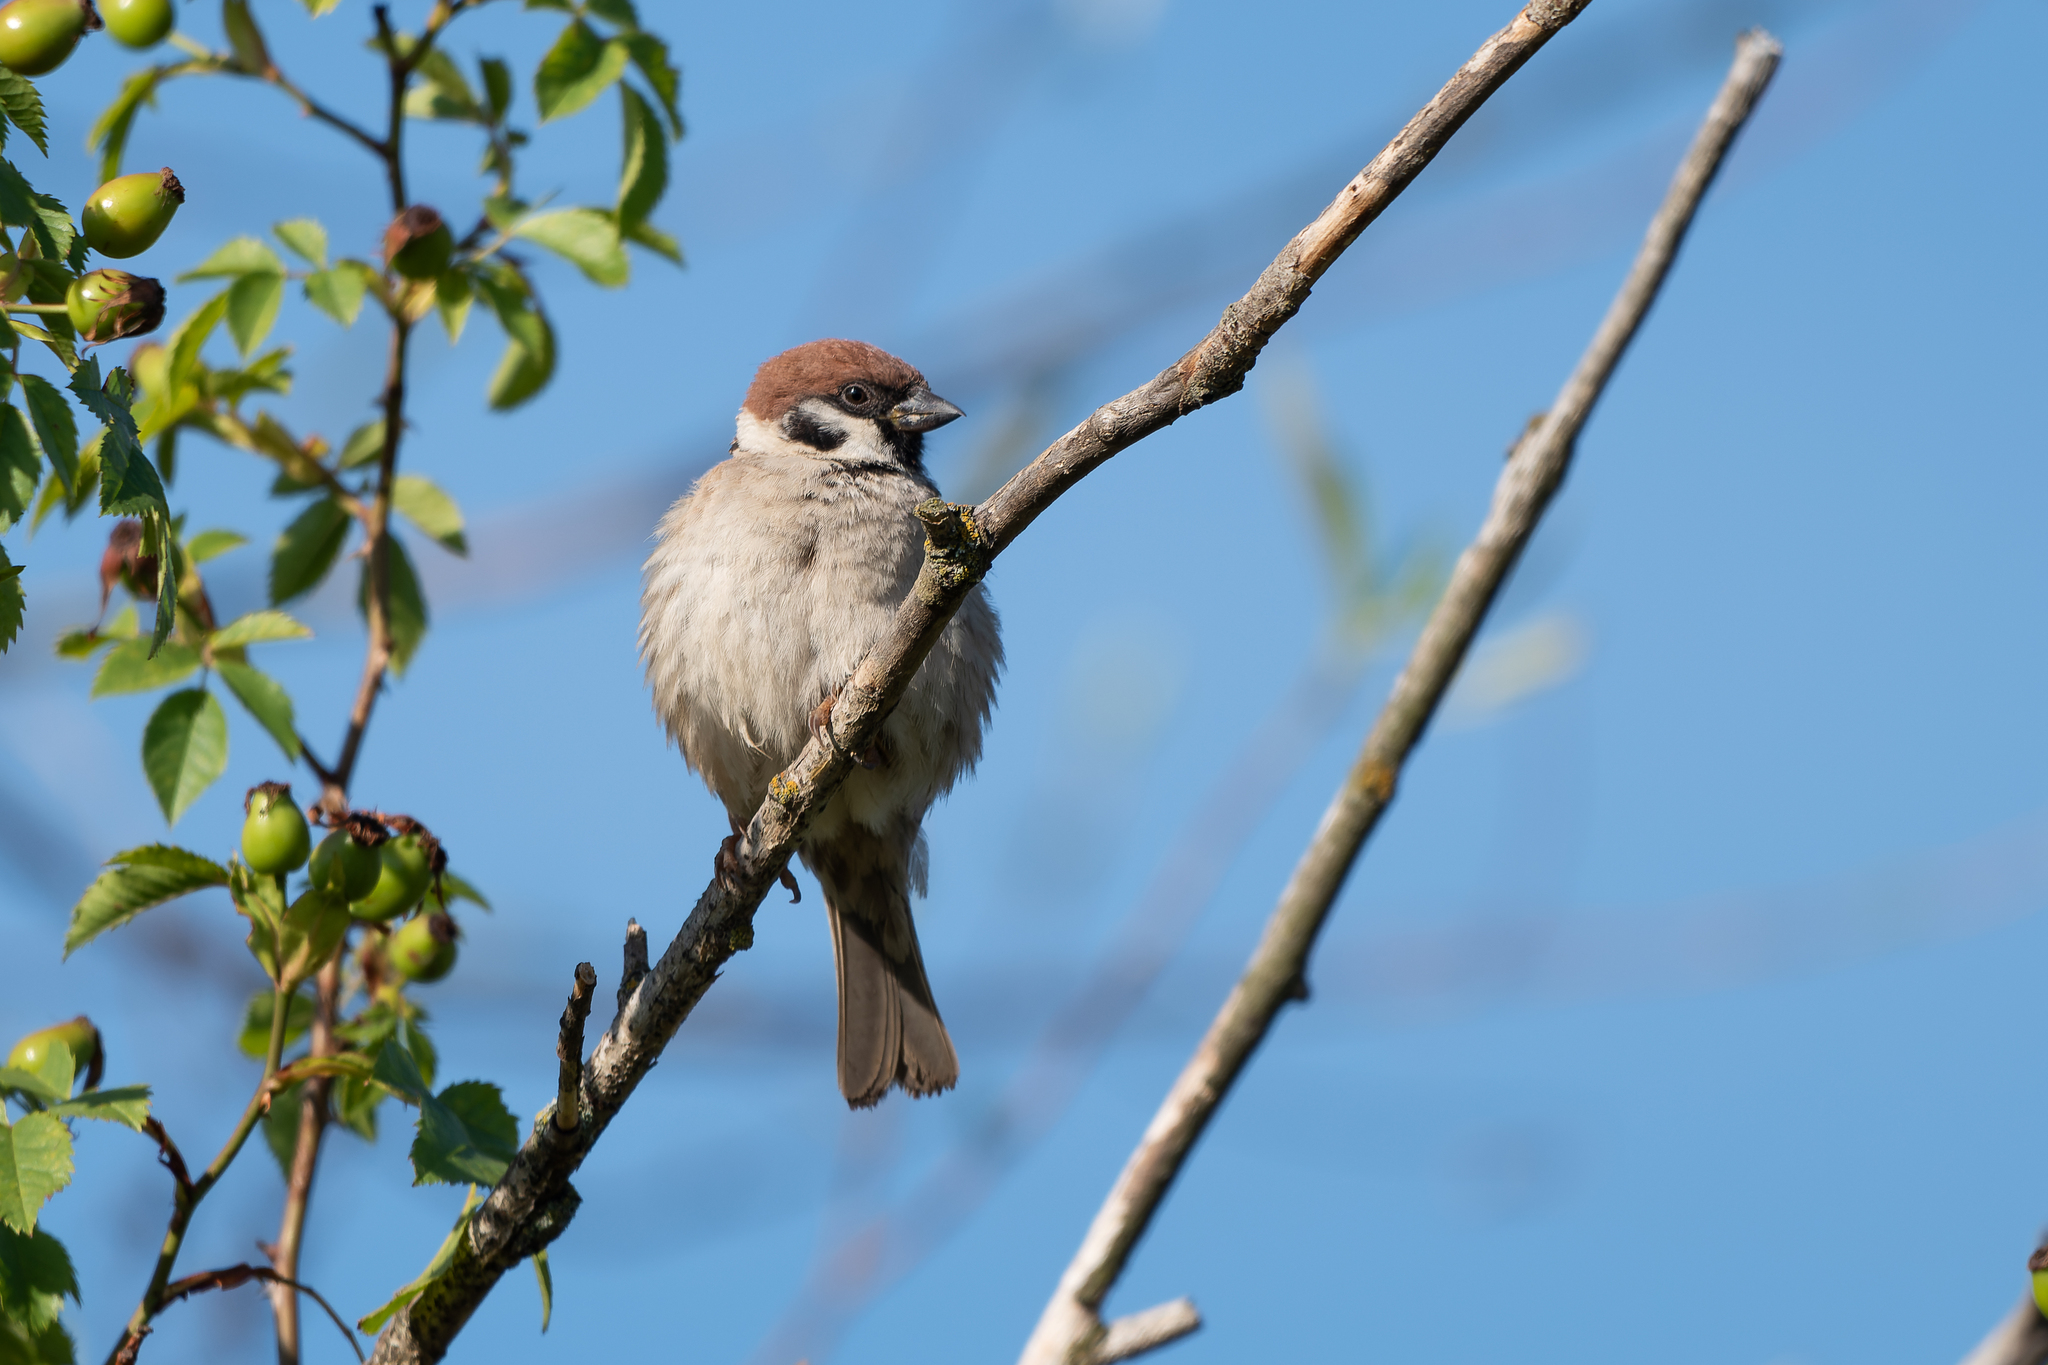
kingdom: Animalia
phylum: Chordata
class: Aves
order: Passeriformes
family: Passeridae
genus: Passer
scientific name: Passer montanus
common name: Eurasian tree sparrow
